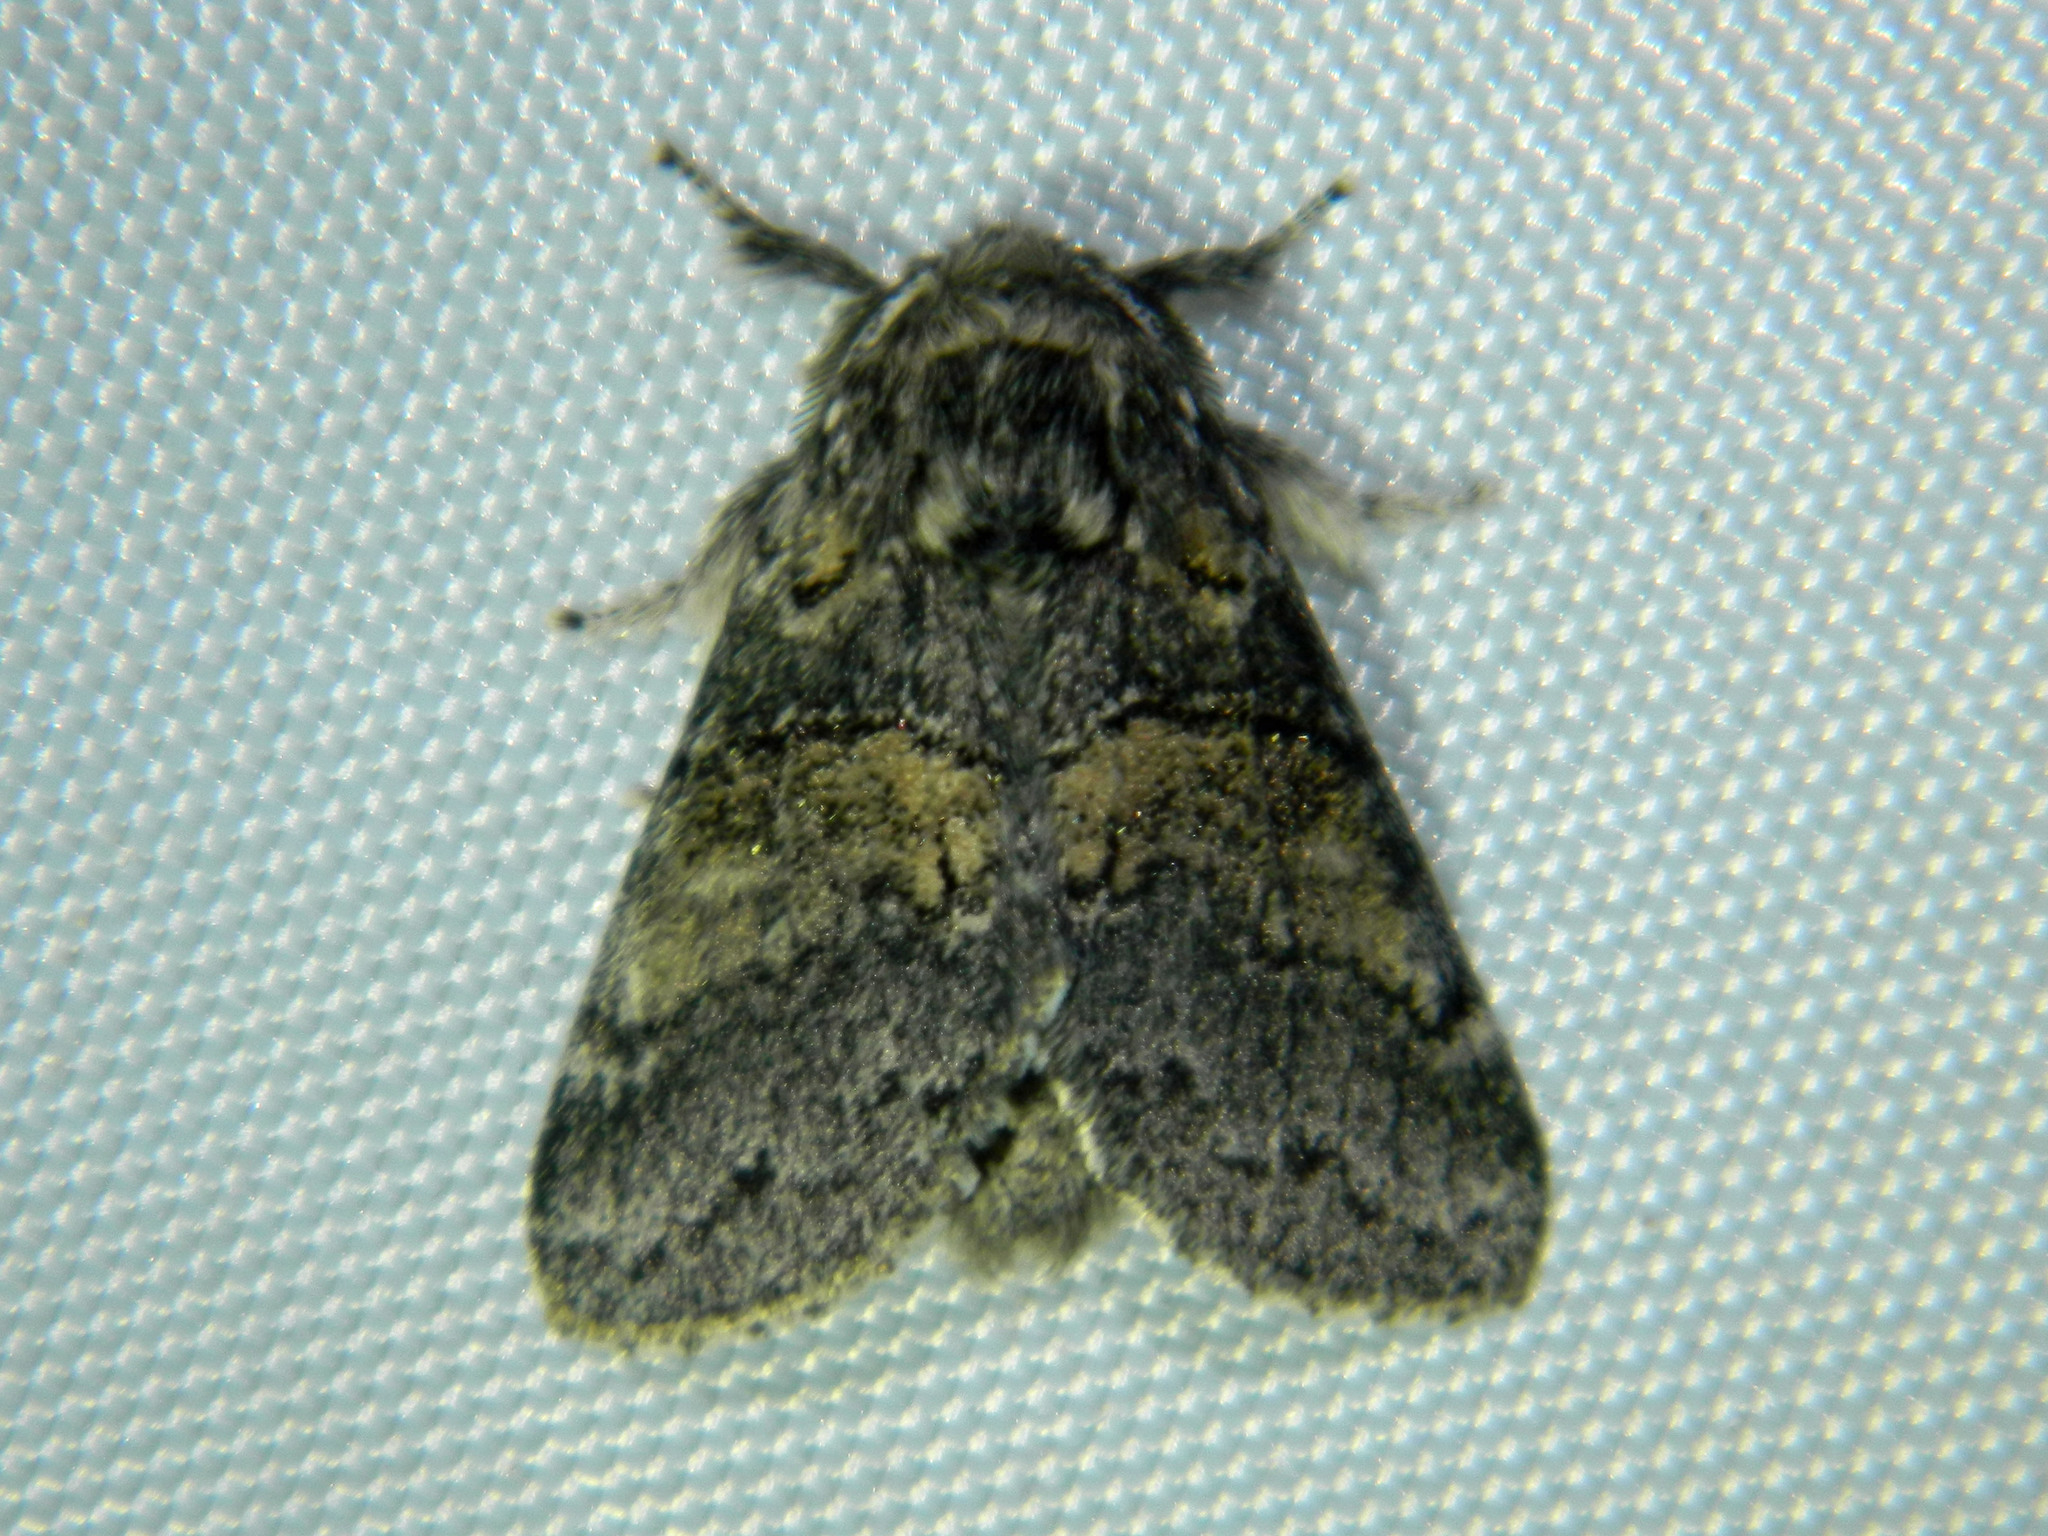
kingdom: Animalia
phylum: Arthropoda
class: Insecta
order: Lepidoptera
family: Notodontidae
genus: Gluphisia
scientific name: Gluphisia septentrionis
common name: Common gluphisia
